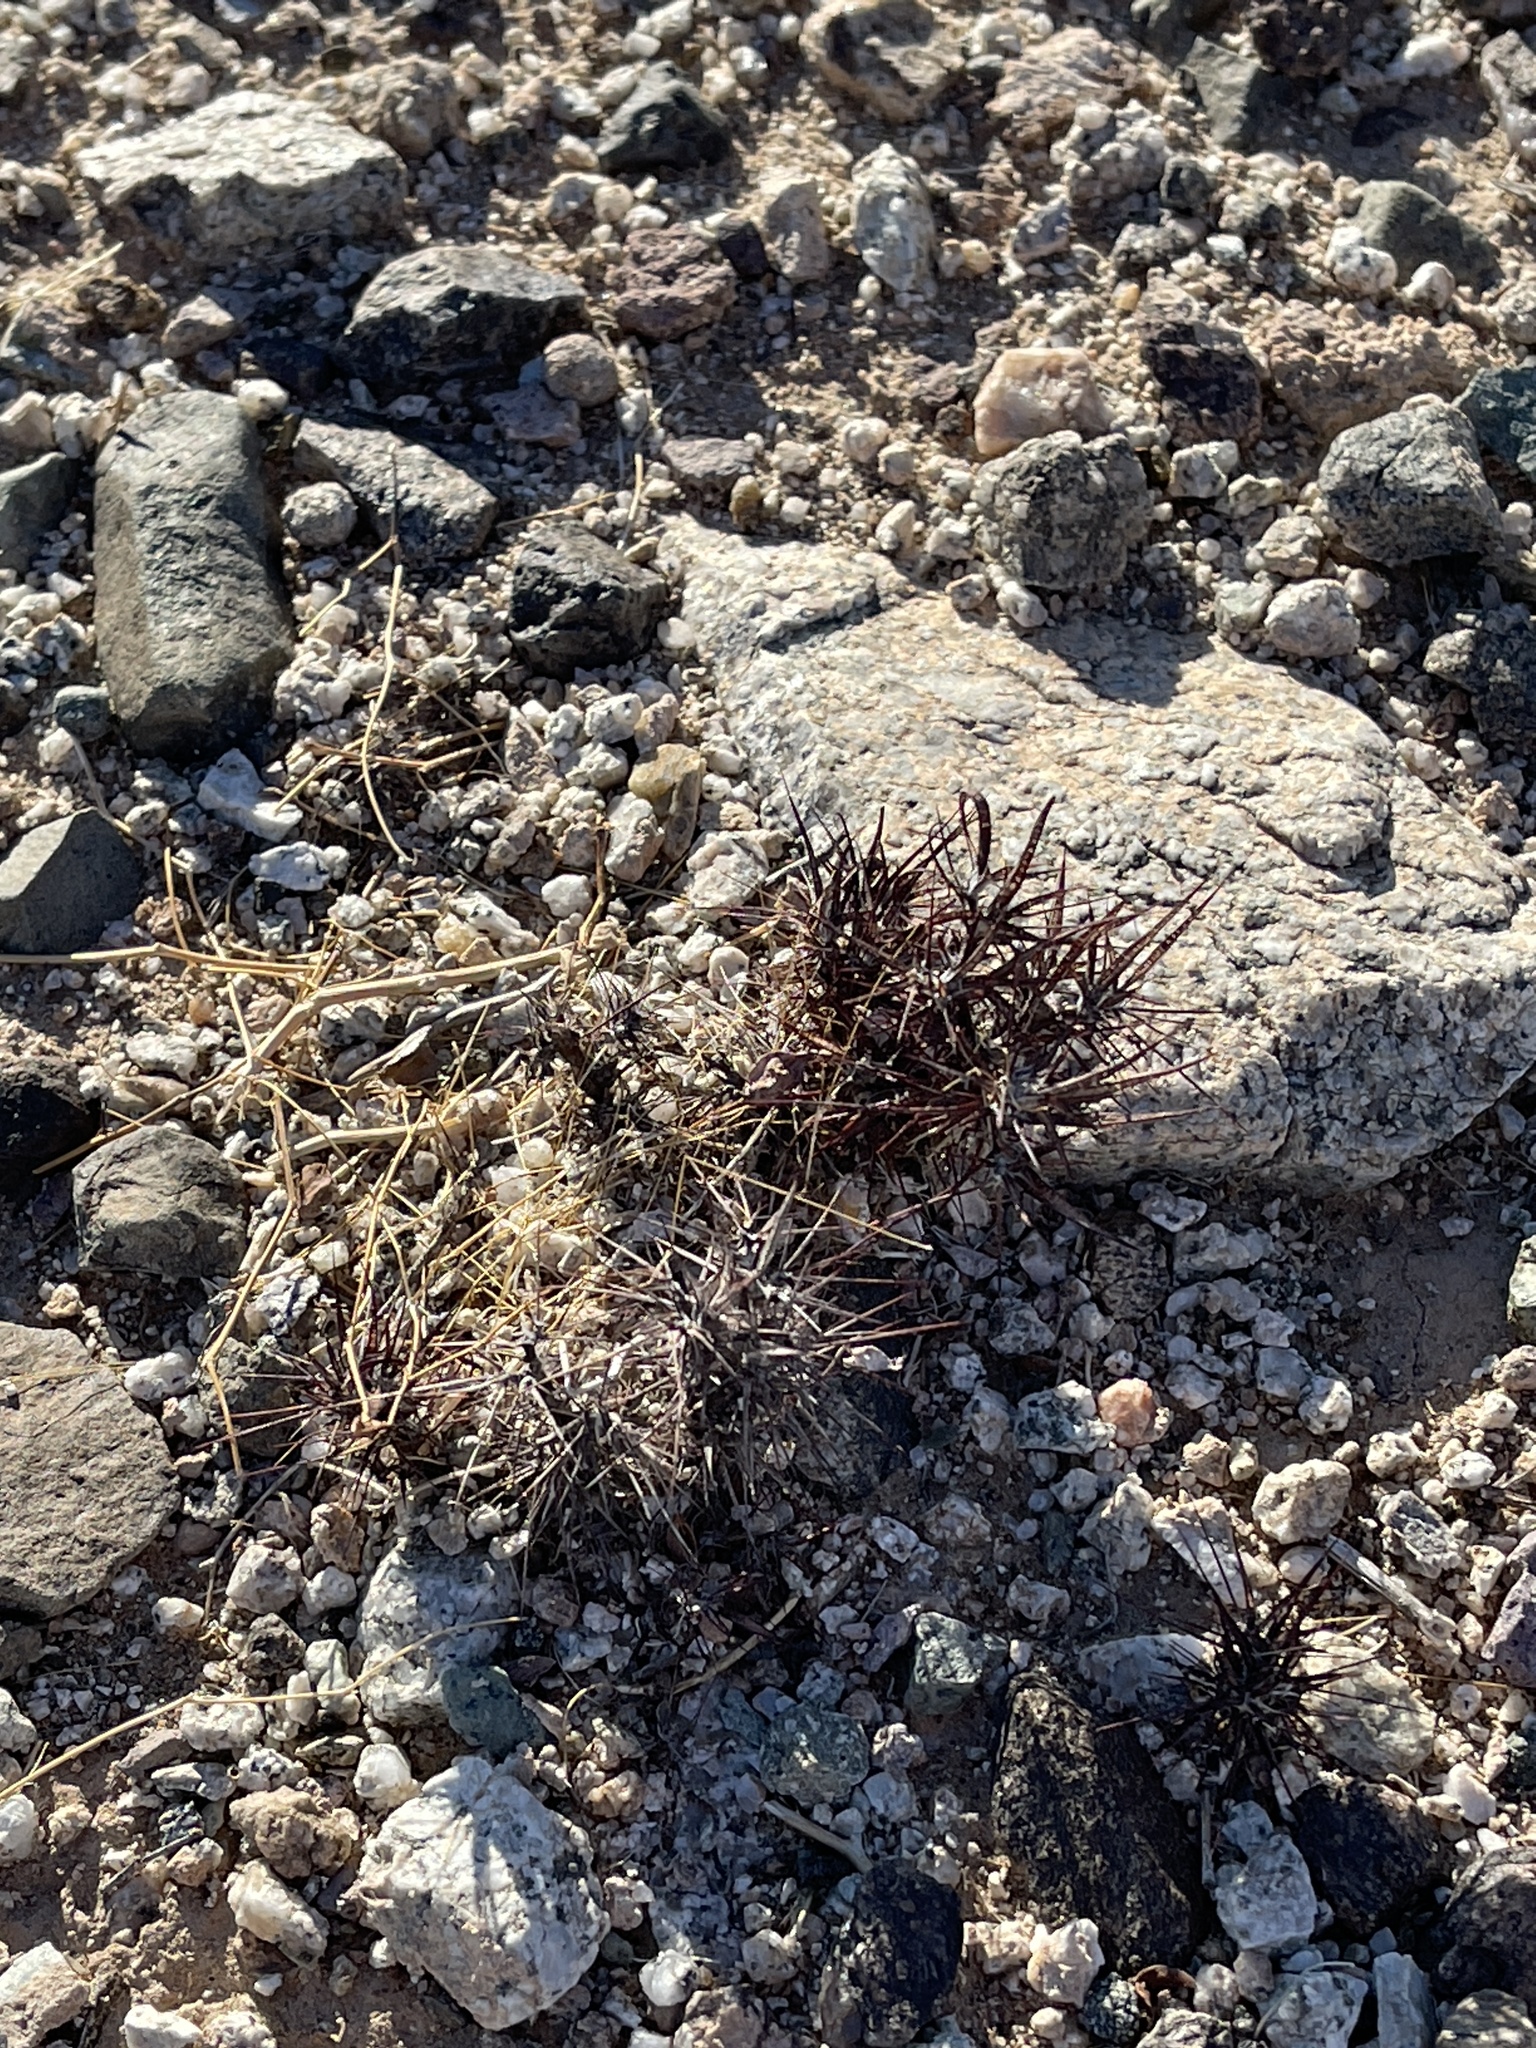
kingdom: Plantae
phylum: Tracheophyta
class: Magnoliopsida
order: Caryophyllales
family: Polygonaceae
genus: Chorizanthe
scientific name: Chorizanthe rigida
